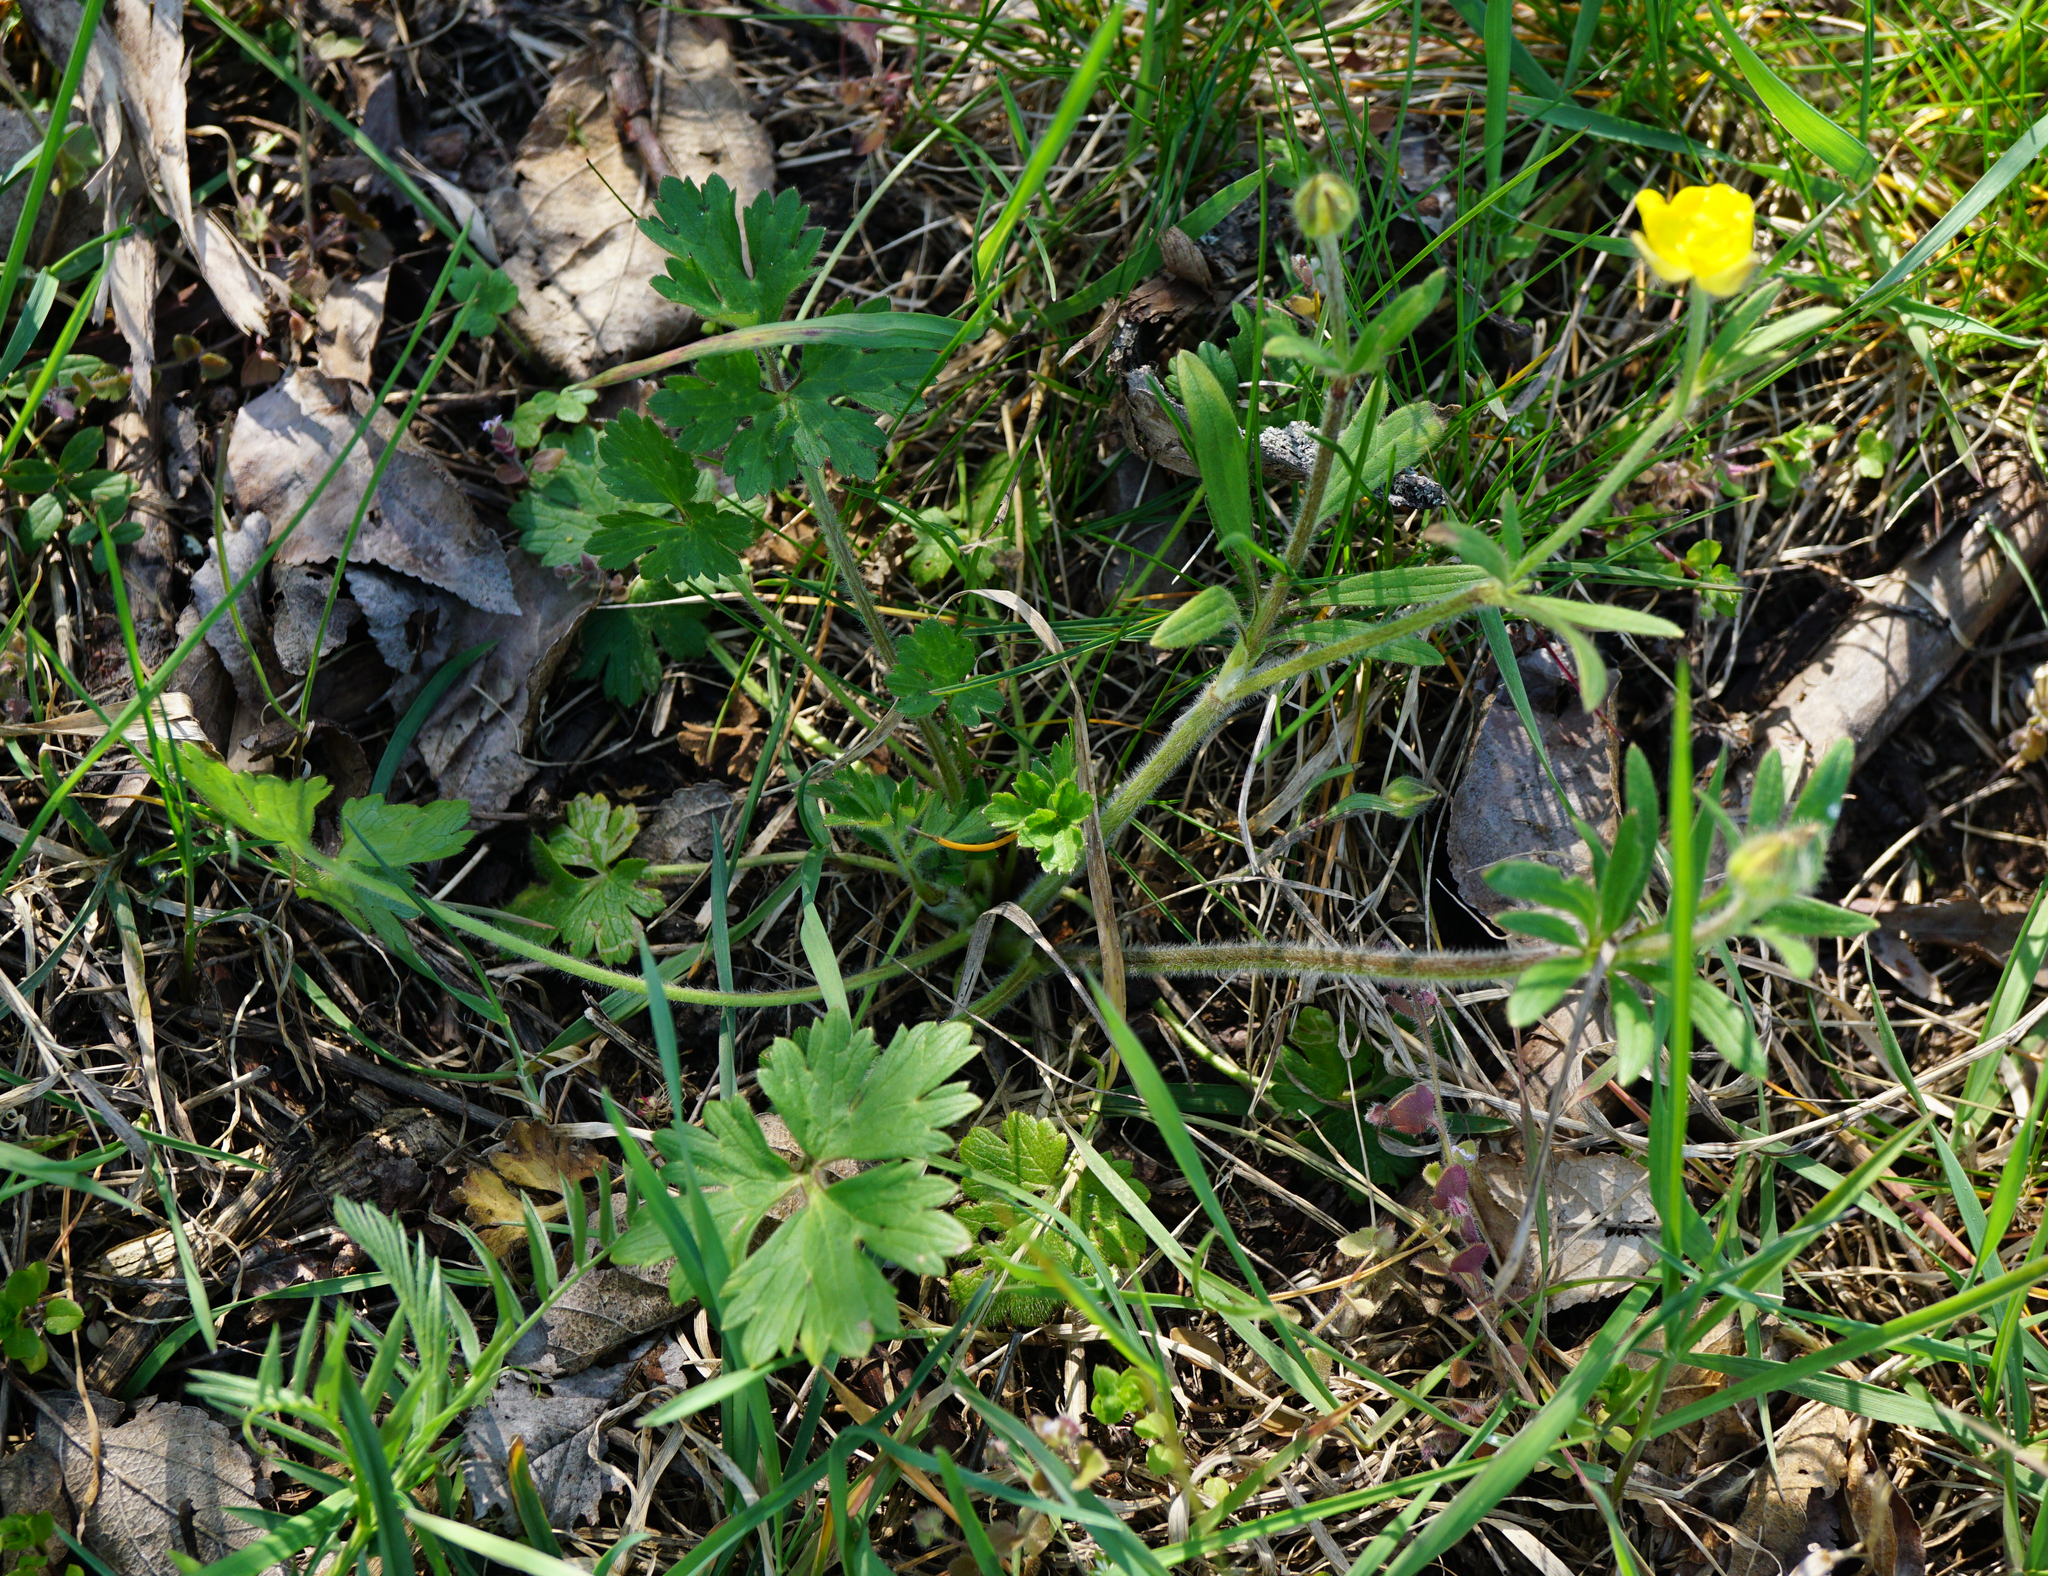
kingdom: Plantae
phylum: Tracheophyta
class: Magnoliopsida
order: Ranunculales
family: Ranunculaceae
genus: Ranunculus
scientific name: Ranunculus bulbosus
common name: Bulbous buttercup
